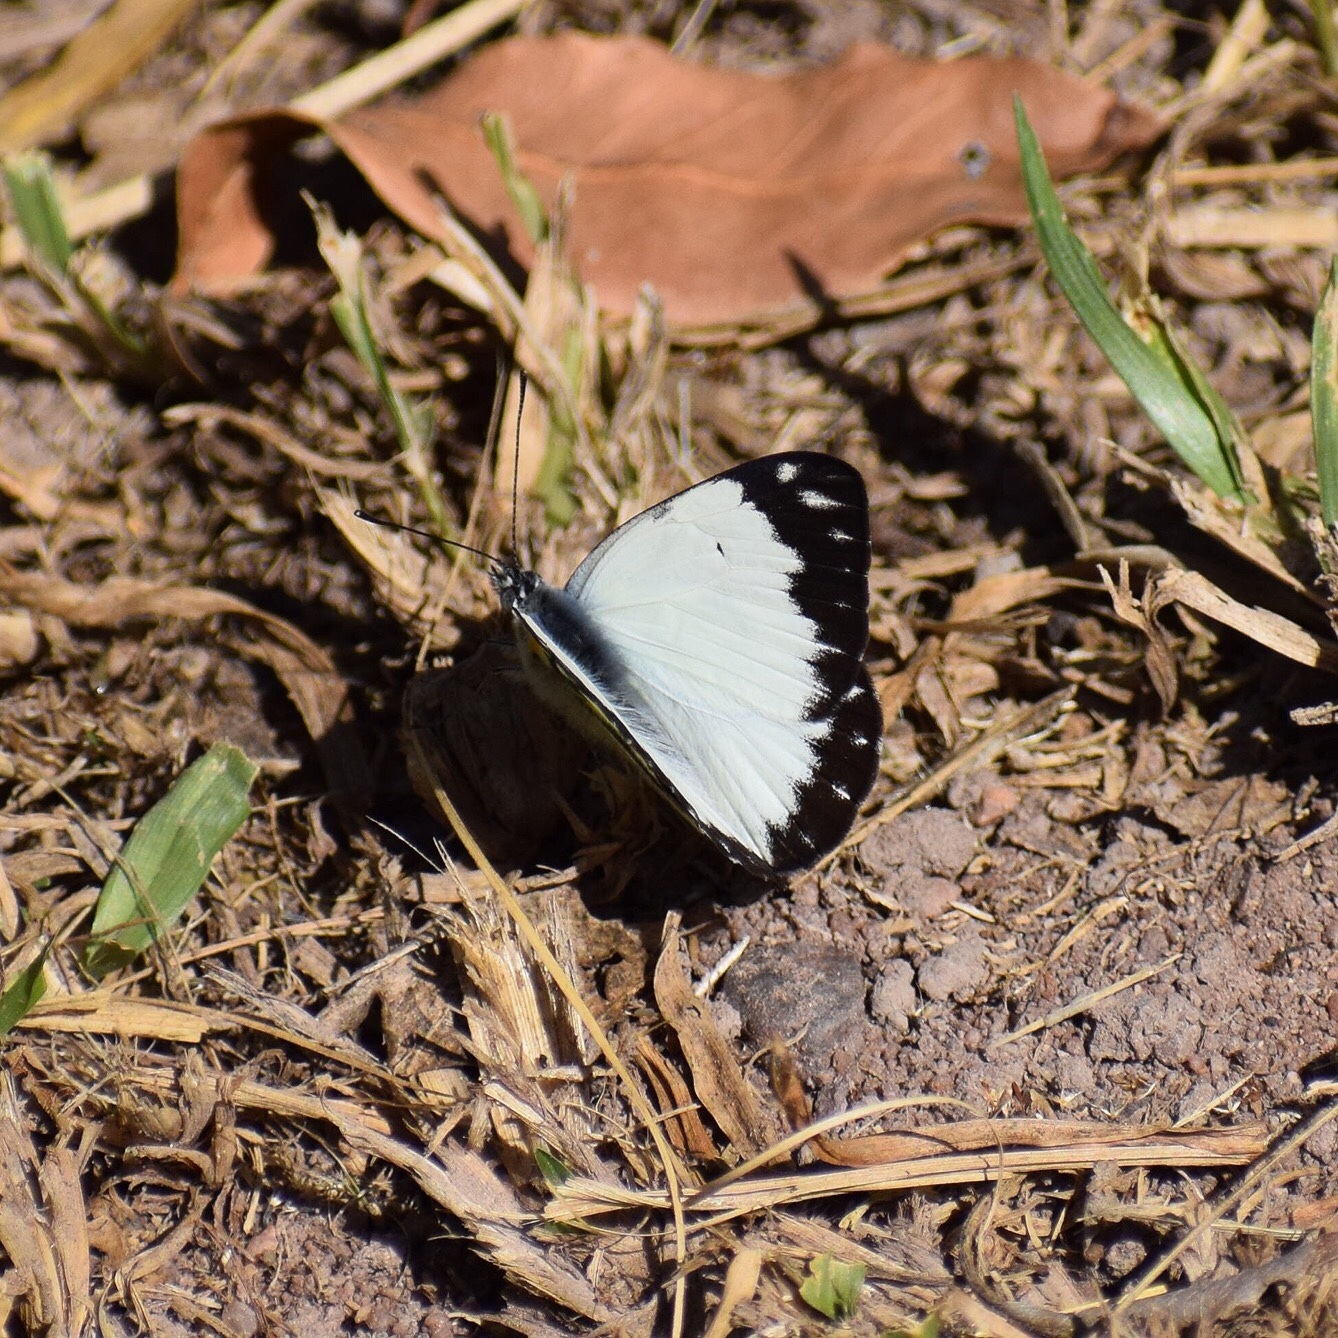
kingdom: Animalia
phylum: Arthropoda
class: Insecta
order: Lepidoptera
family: Pieridae
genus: Belenois
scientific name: Belenois creona
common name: African caper white
